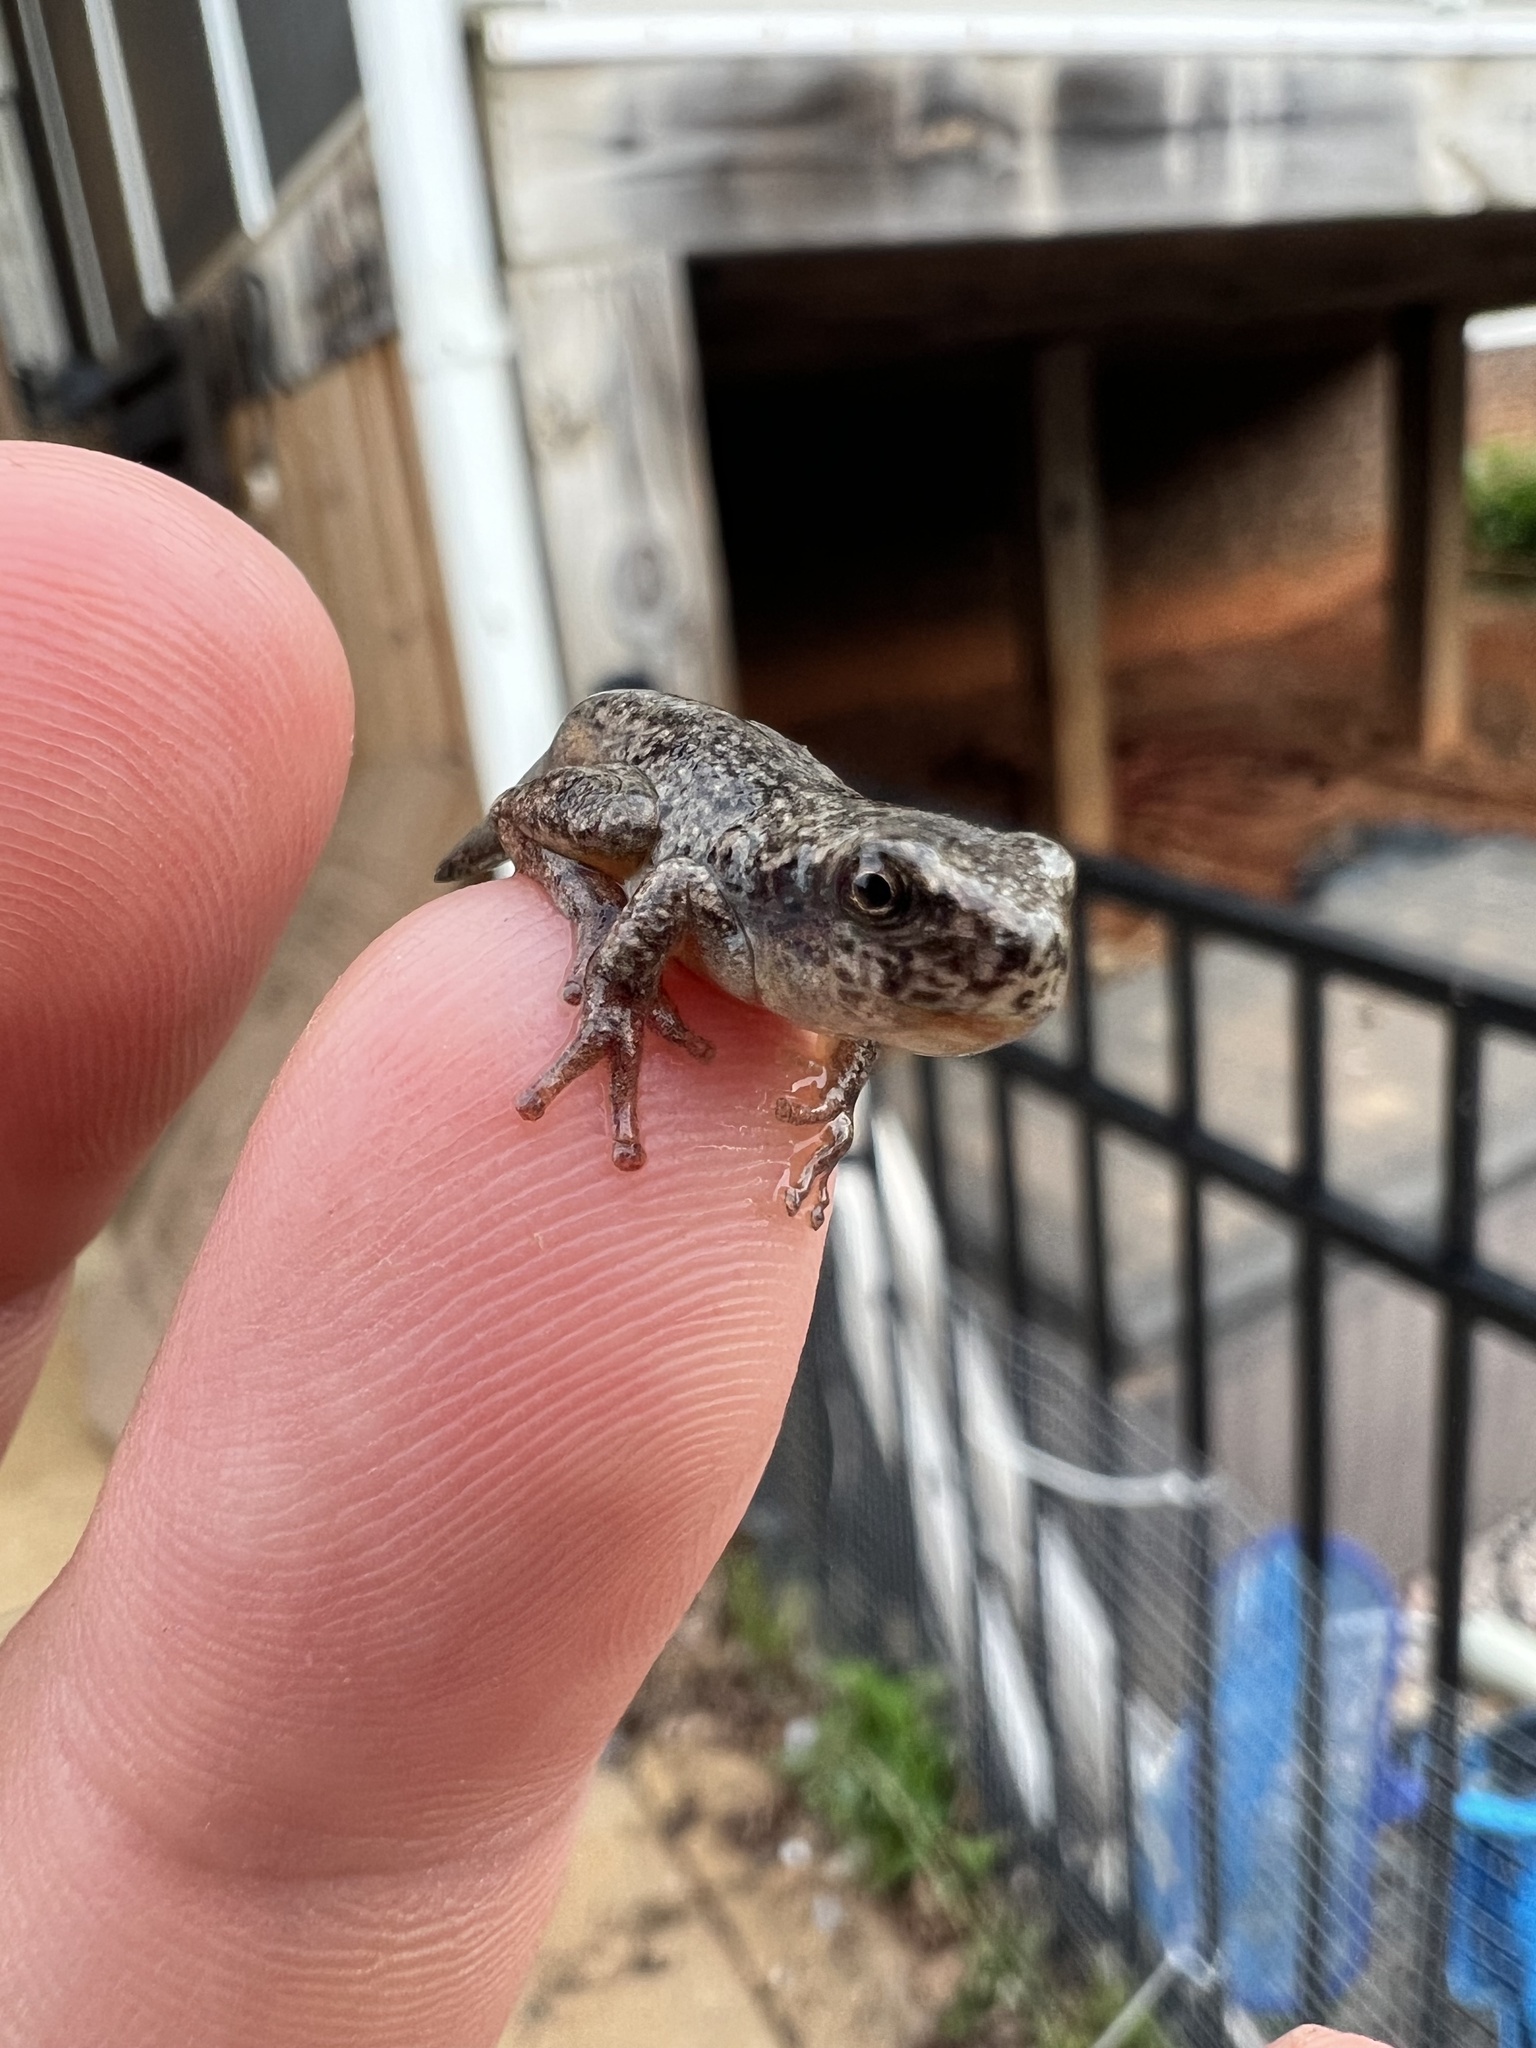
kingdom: Animalia
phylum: Chordata
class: Amphibia
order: Anura
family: Hylidae
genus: Dryophytes
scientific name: Dryophytes chrysoscelis
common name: Cope's gray treefrog
